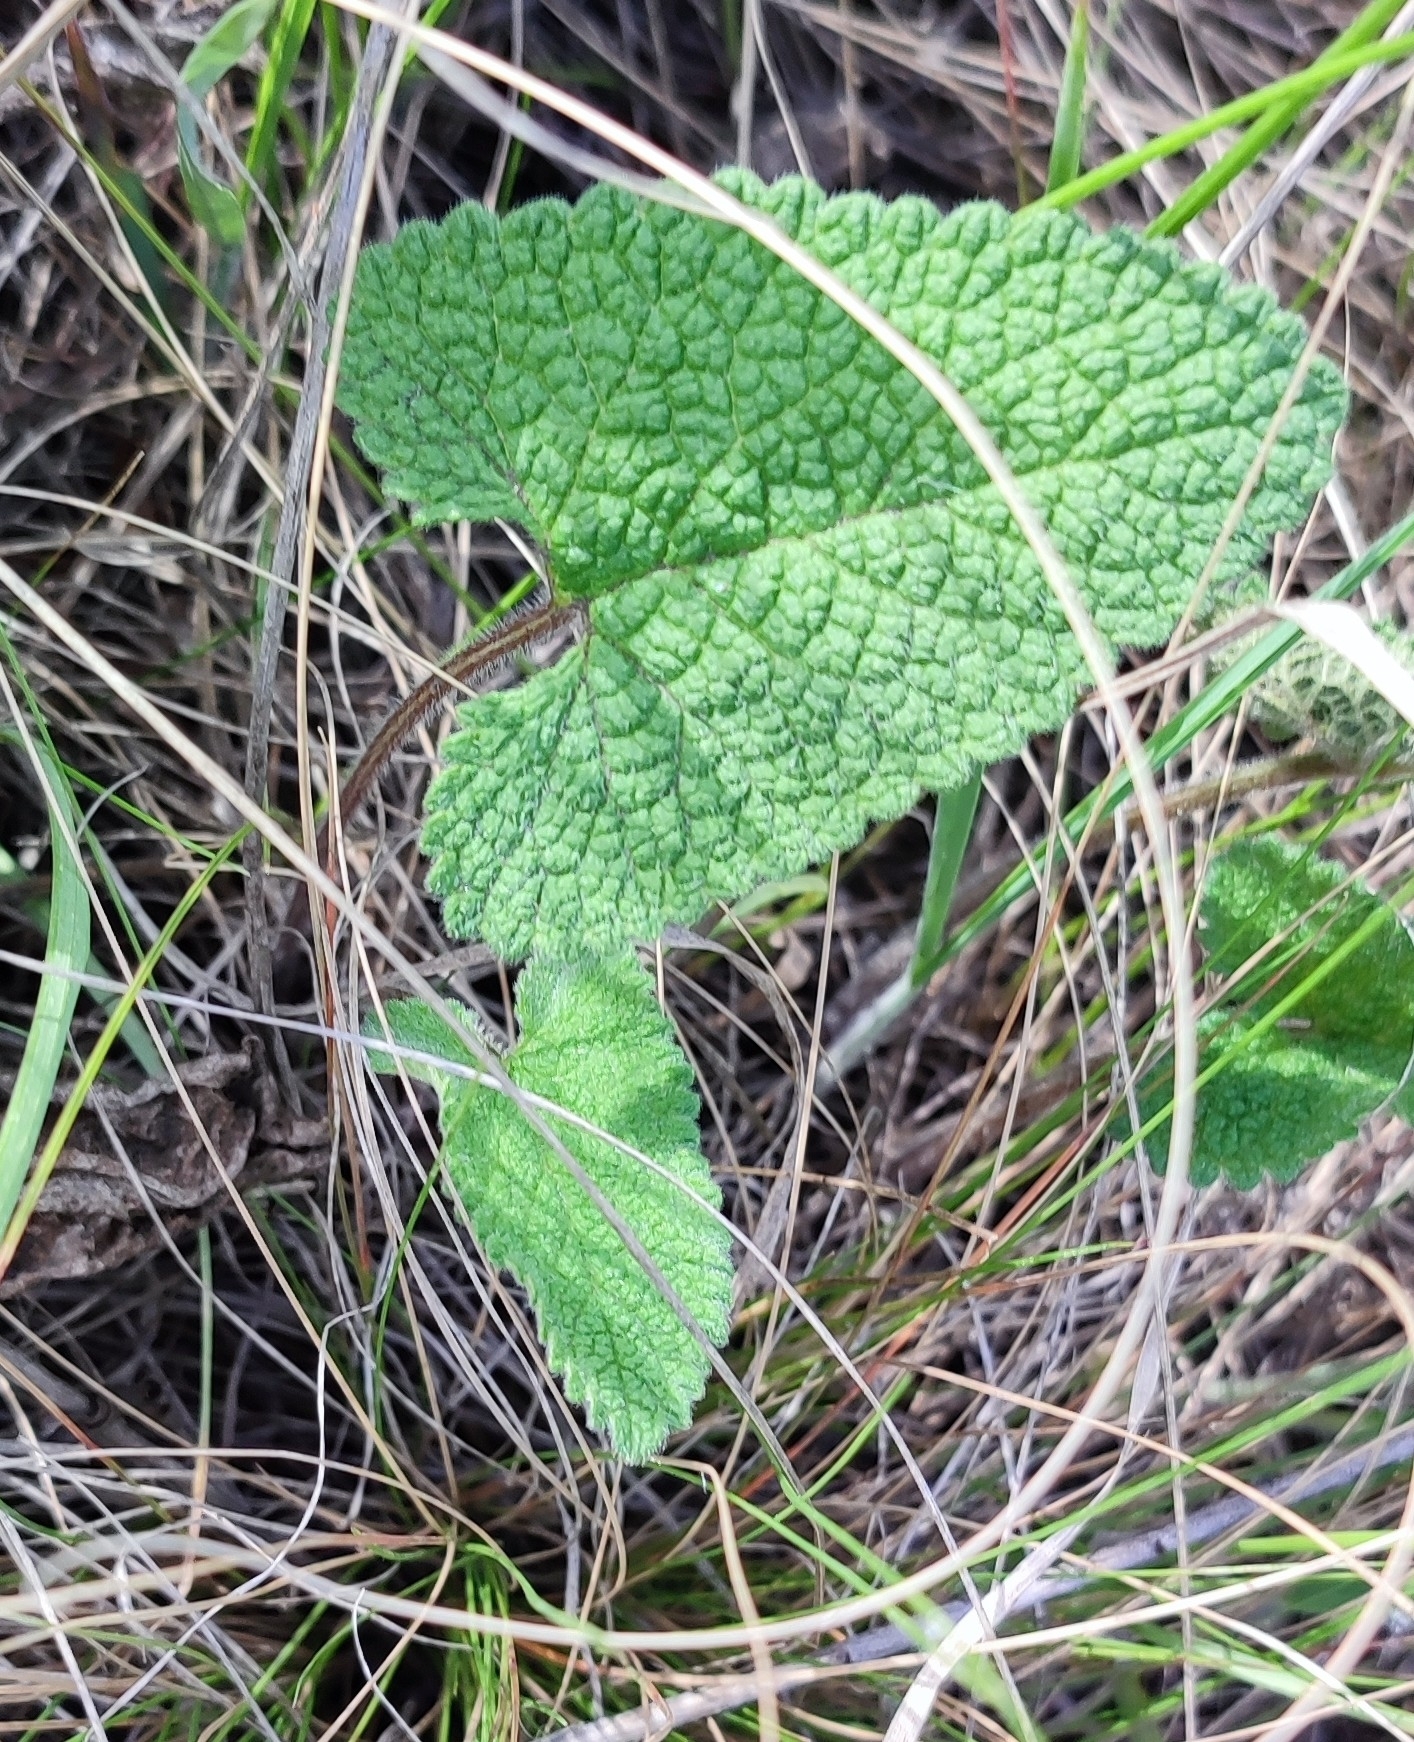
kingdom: Plantae
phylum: Tracheophyta
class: Magnoliopsida
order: Lamiales
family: Lamiaceae
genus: Phlomoides
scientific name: Phlomoides tuberosa
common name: Tuberous jerusalem sage
